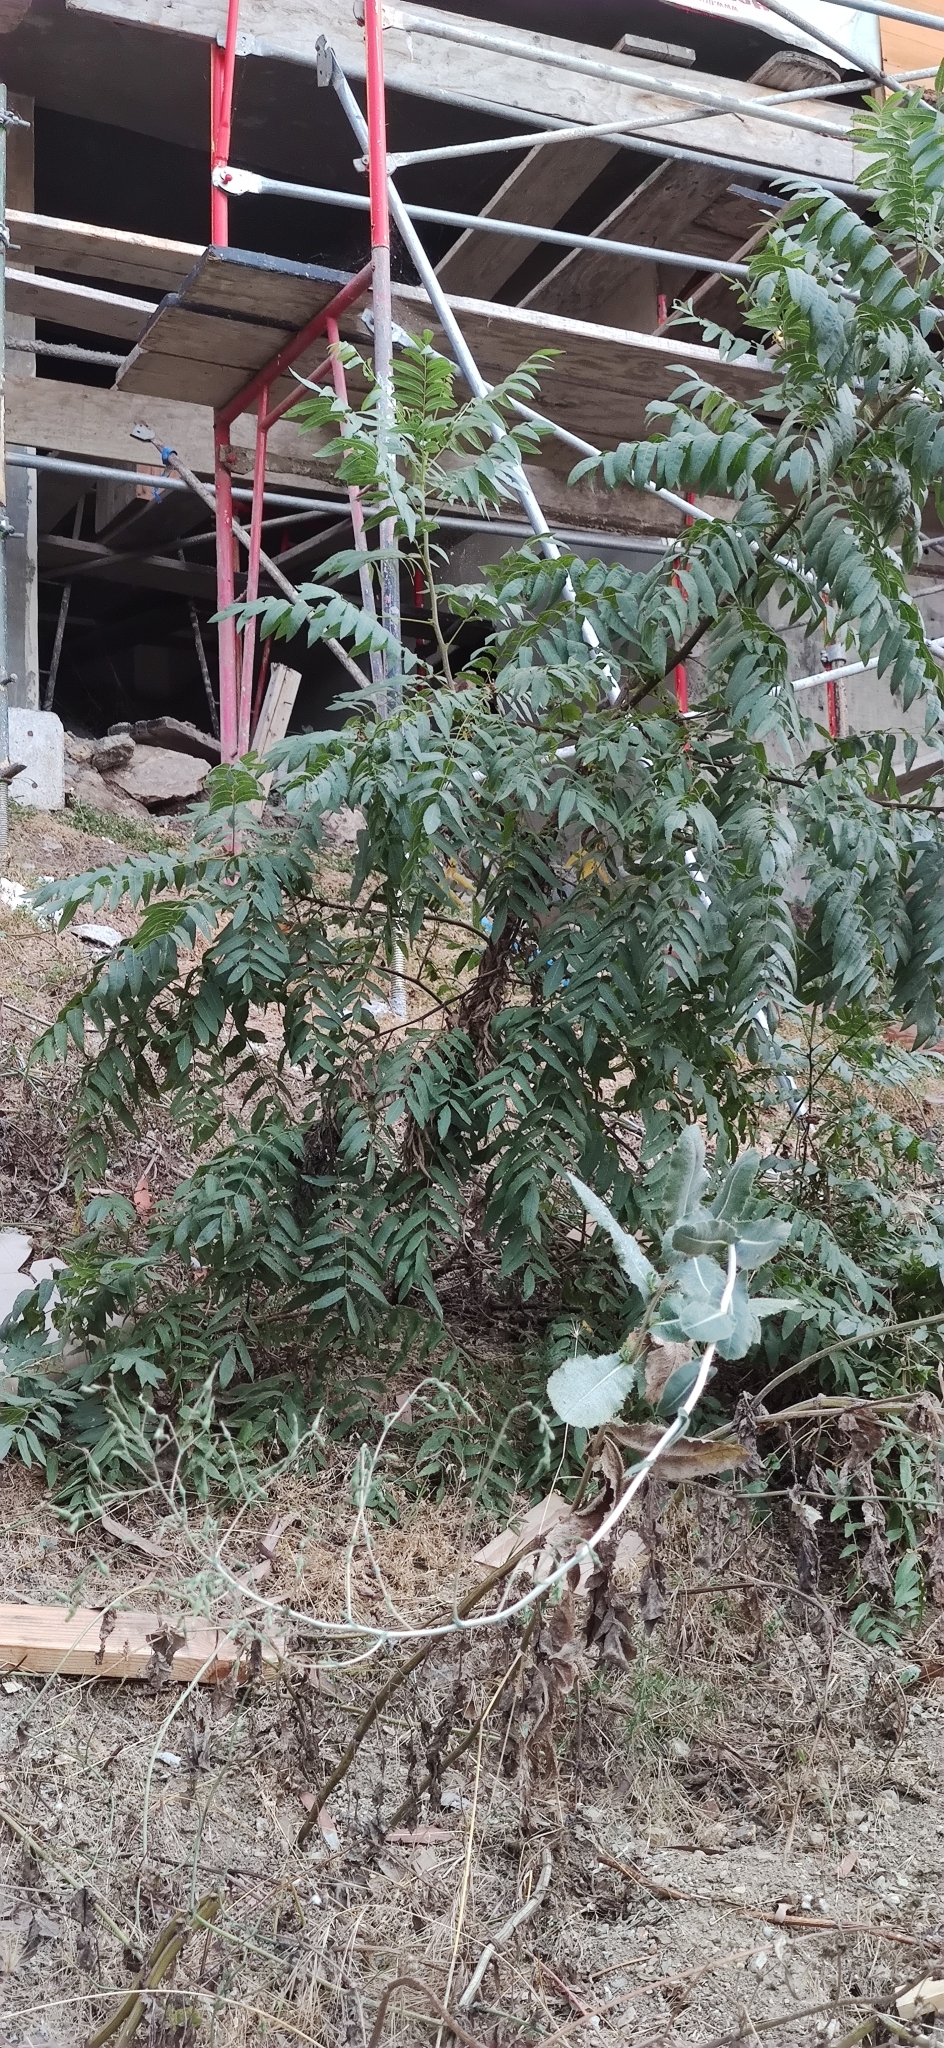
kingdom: Plantae
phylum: Tracheophyta
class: Magnoliopsida
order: Fagales
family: Juglandaceae
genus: Juglans
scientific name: Juglans californica
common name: Southern california black walnut
